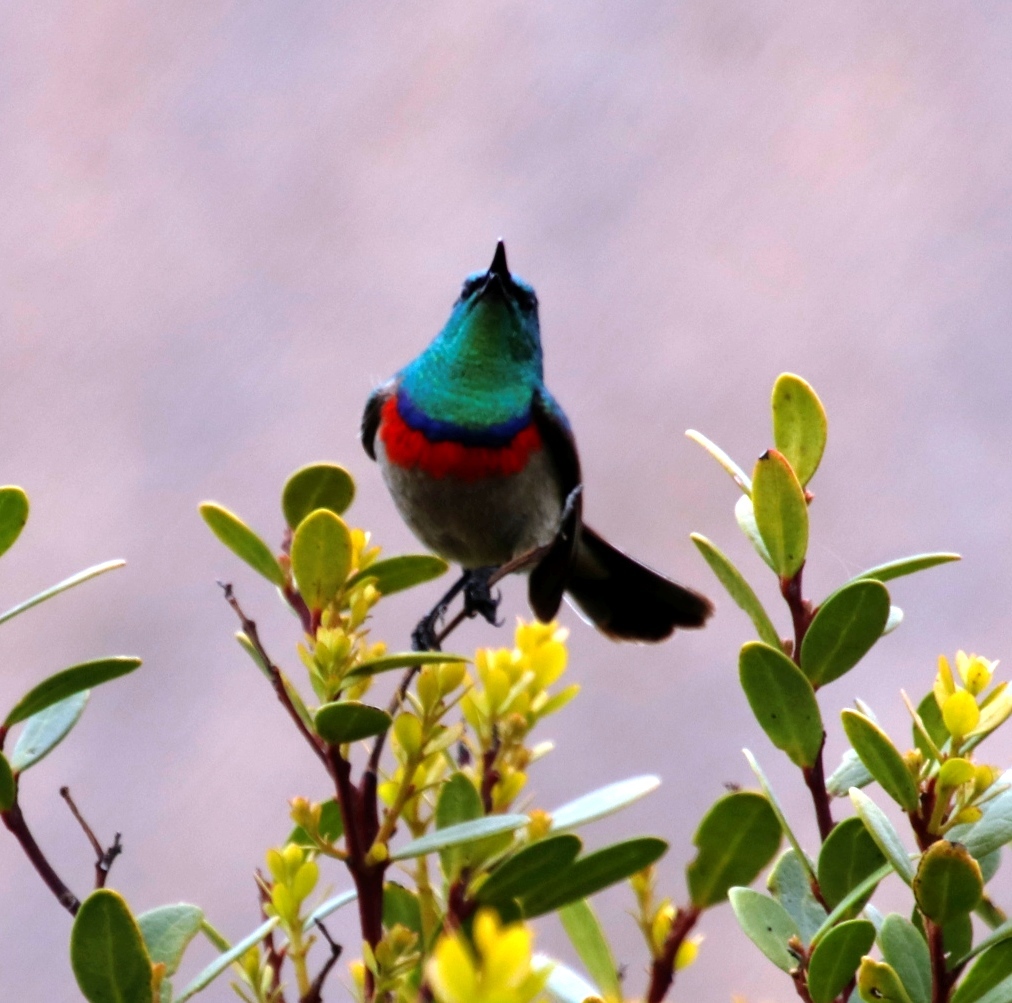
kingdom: Animalia
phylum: Chordata
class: Aves
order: Passeriformes
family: Nectariniidae
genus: Cinnyris
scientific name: Cinnyris chalybeus
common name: Southern double-collared sunbird
